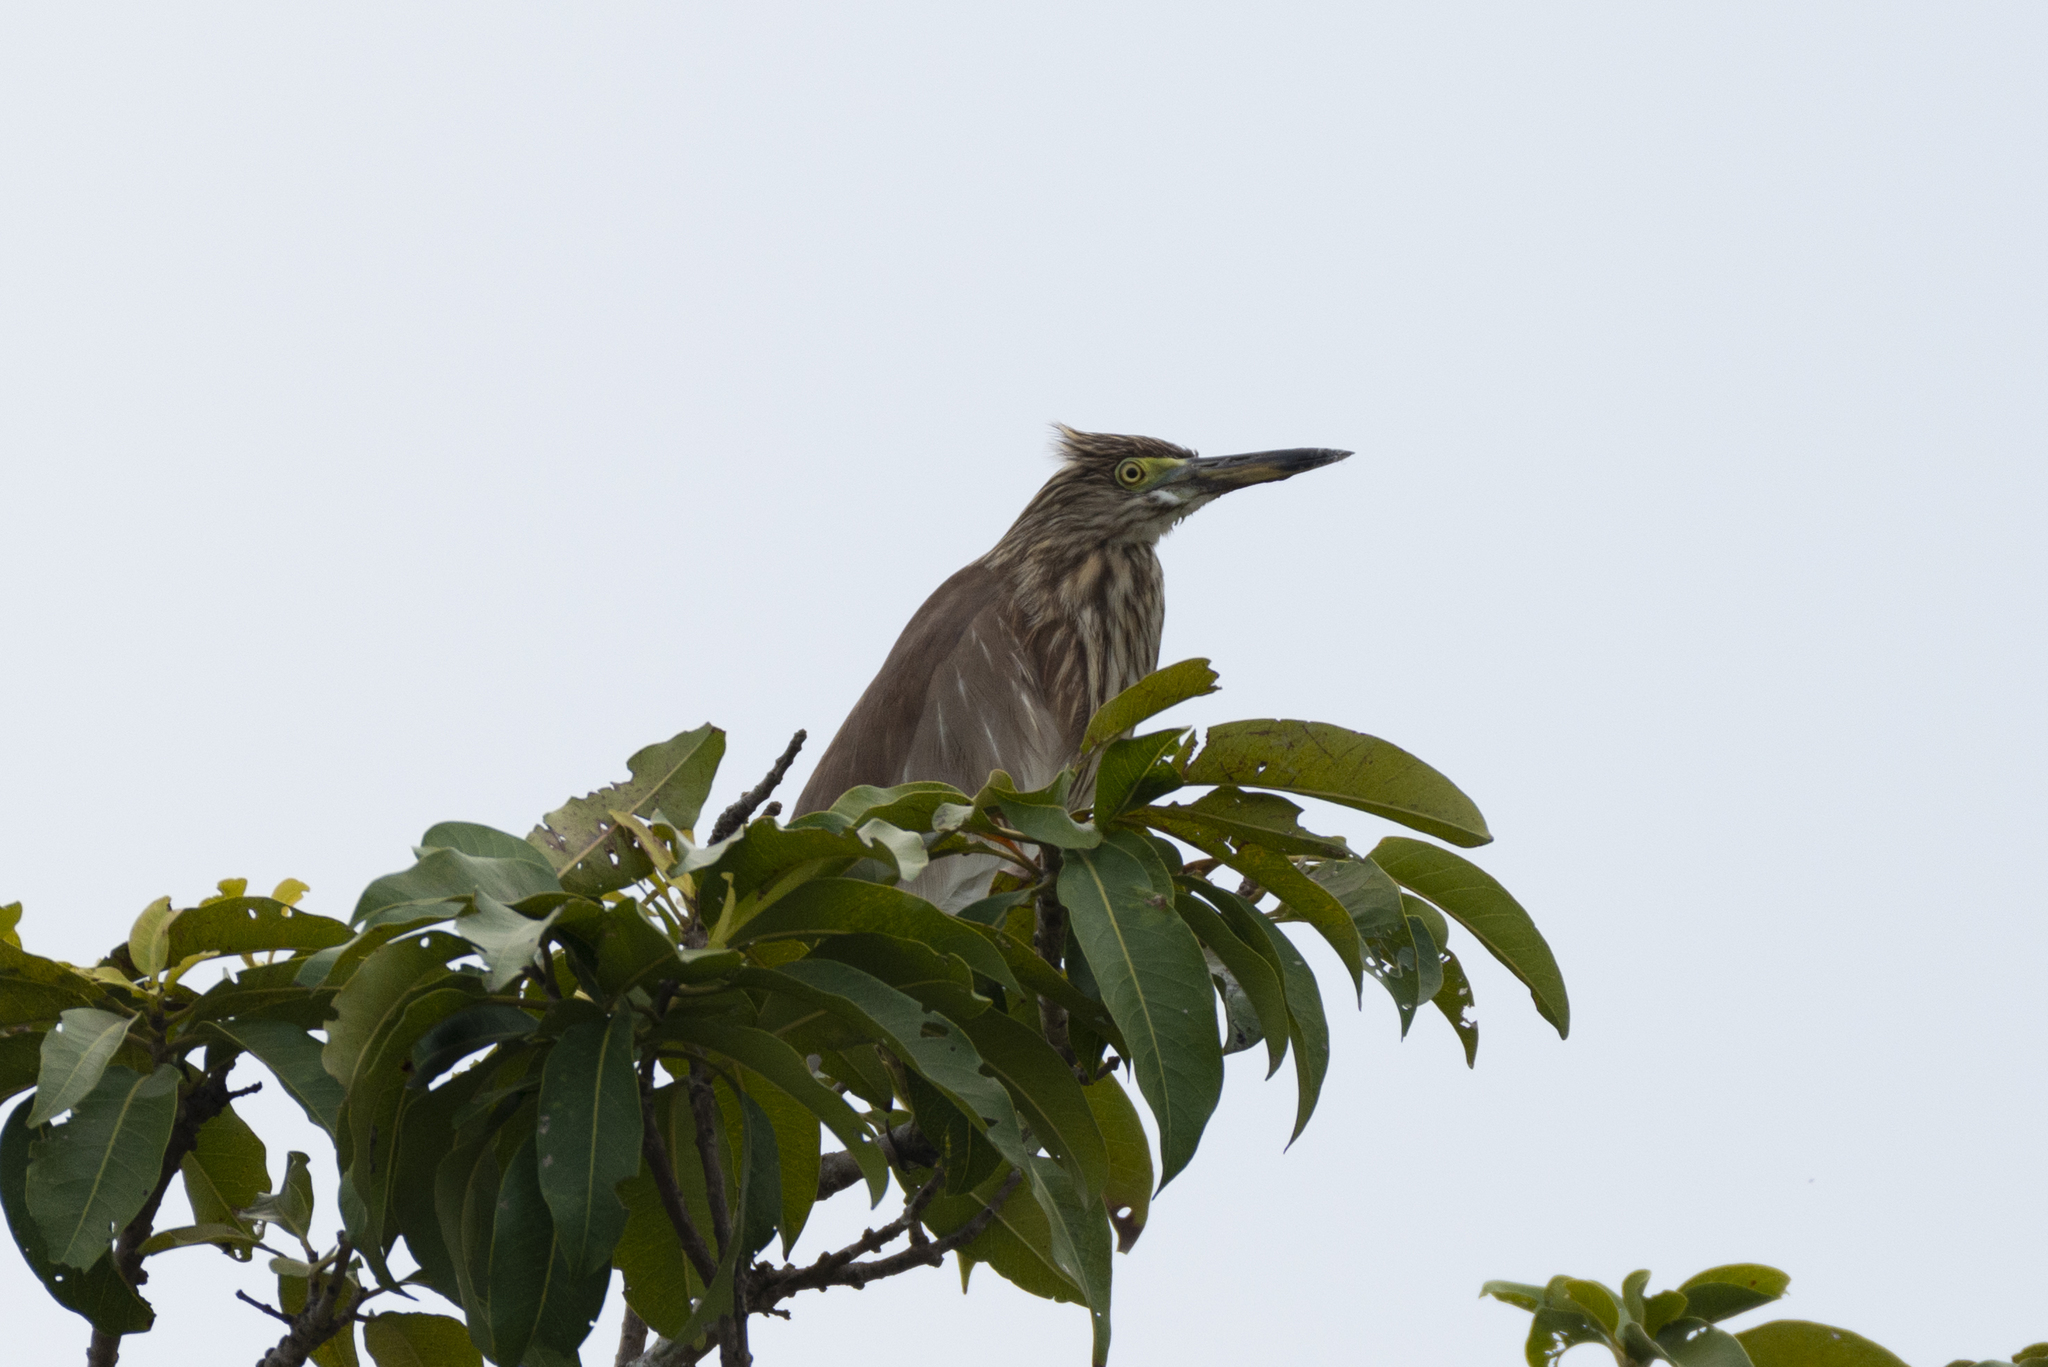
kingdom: Animalia
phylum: Chordata
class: Aves
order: Pelecaniformes
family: Ardeidae
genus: Ardeola
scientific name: Ardeola bacchus
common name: Chinese pond heron
